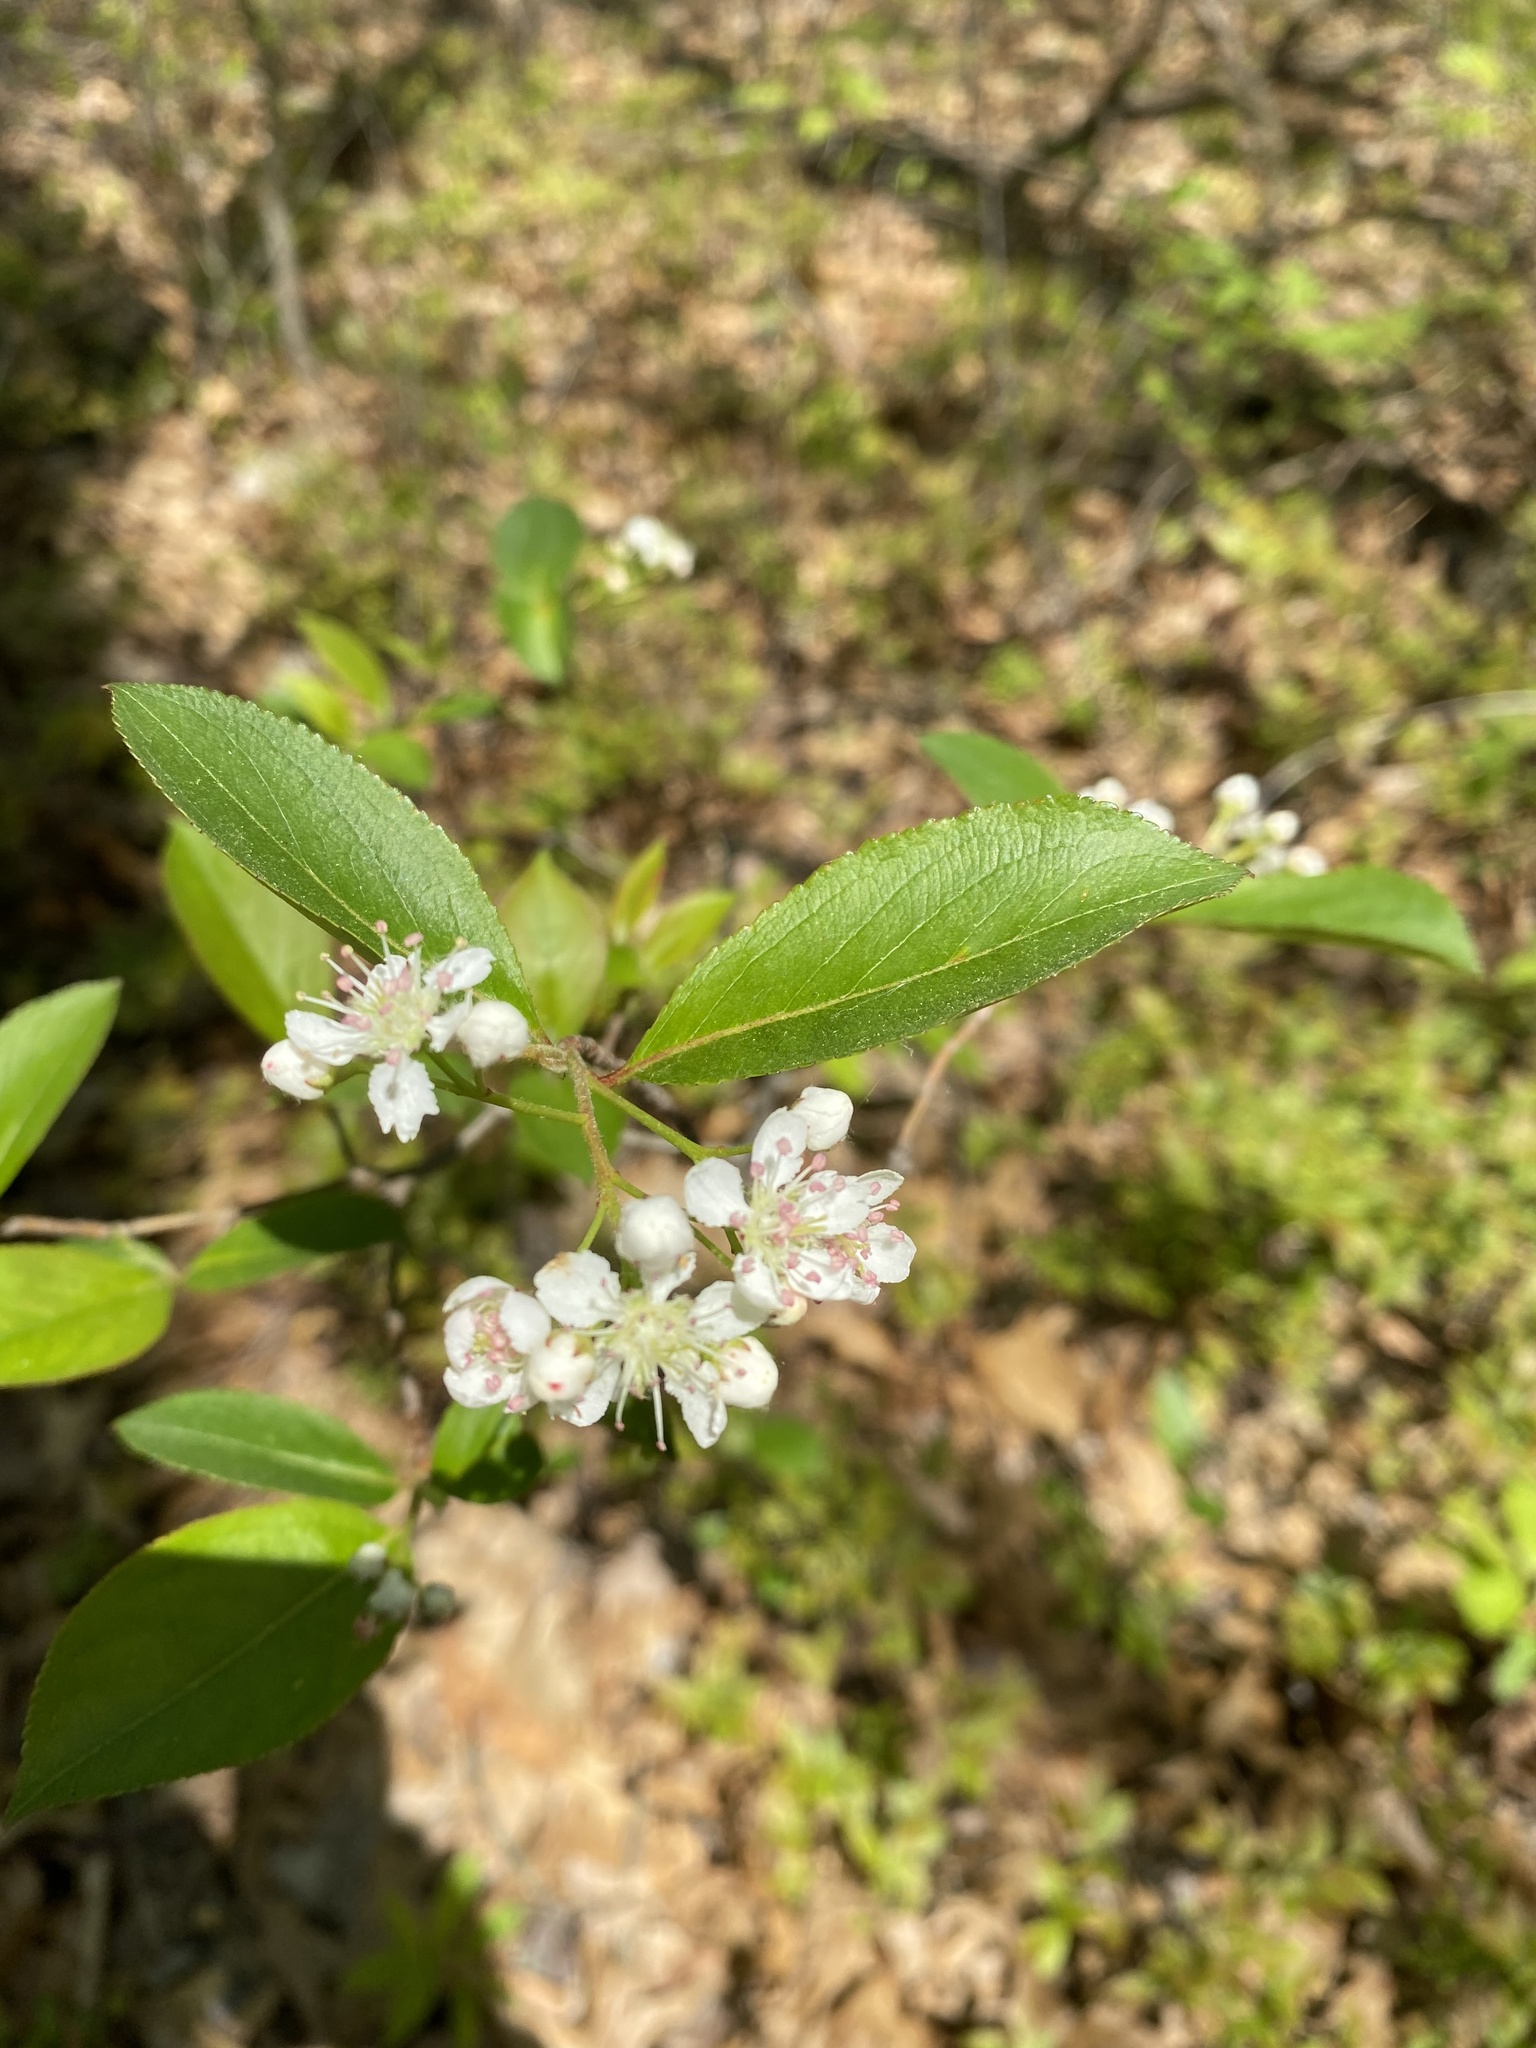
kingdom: Plantae
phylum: Tracheophyta
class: Magnoliopsida
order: Rosales
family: Rosaceae
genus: Aronia
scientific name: Aronia melanocarpa
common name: Black chokeberry
